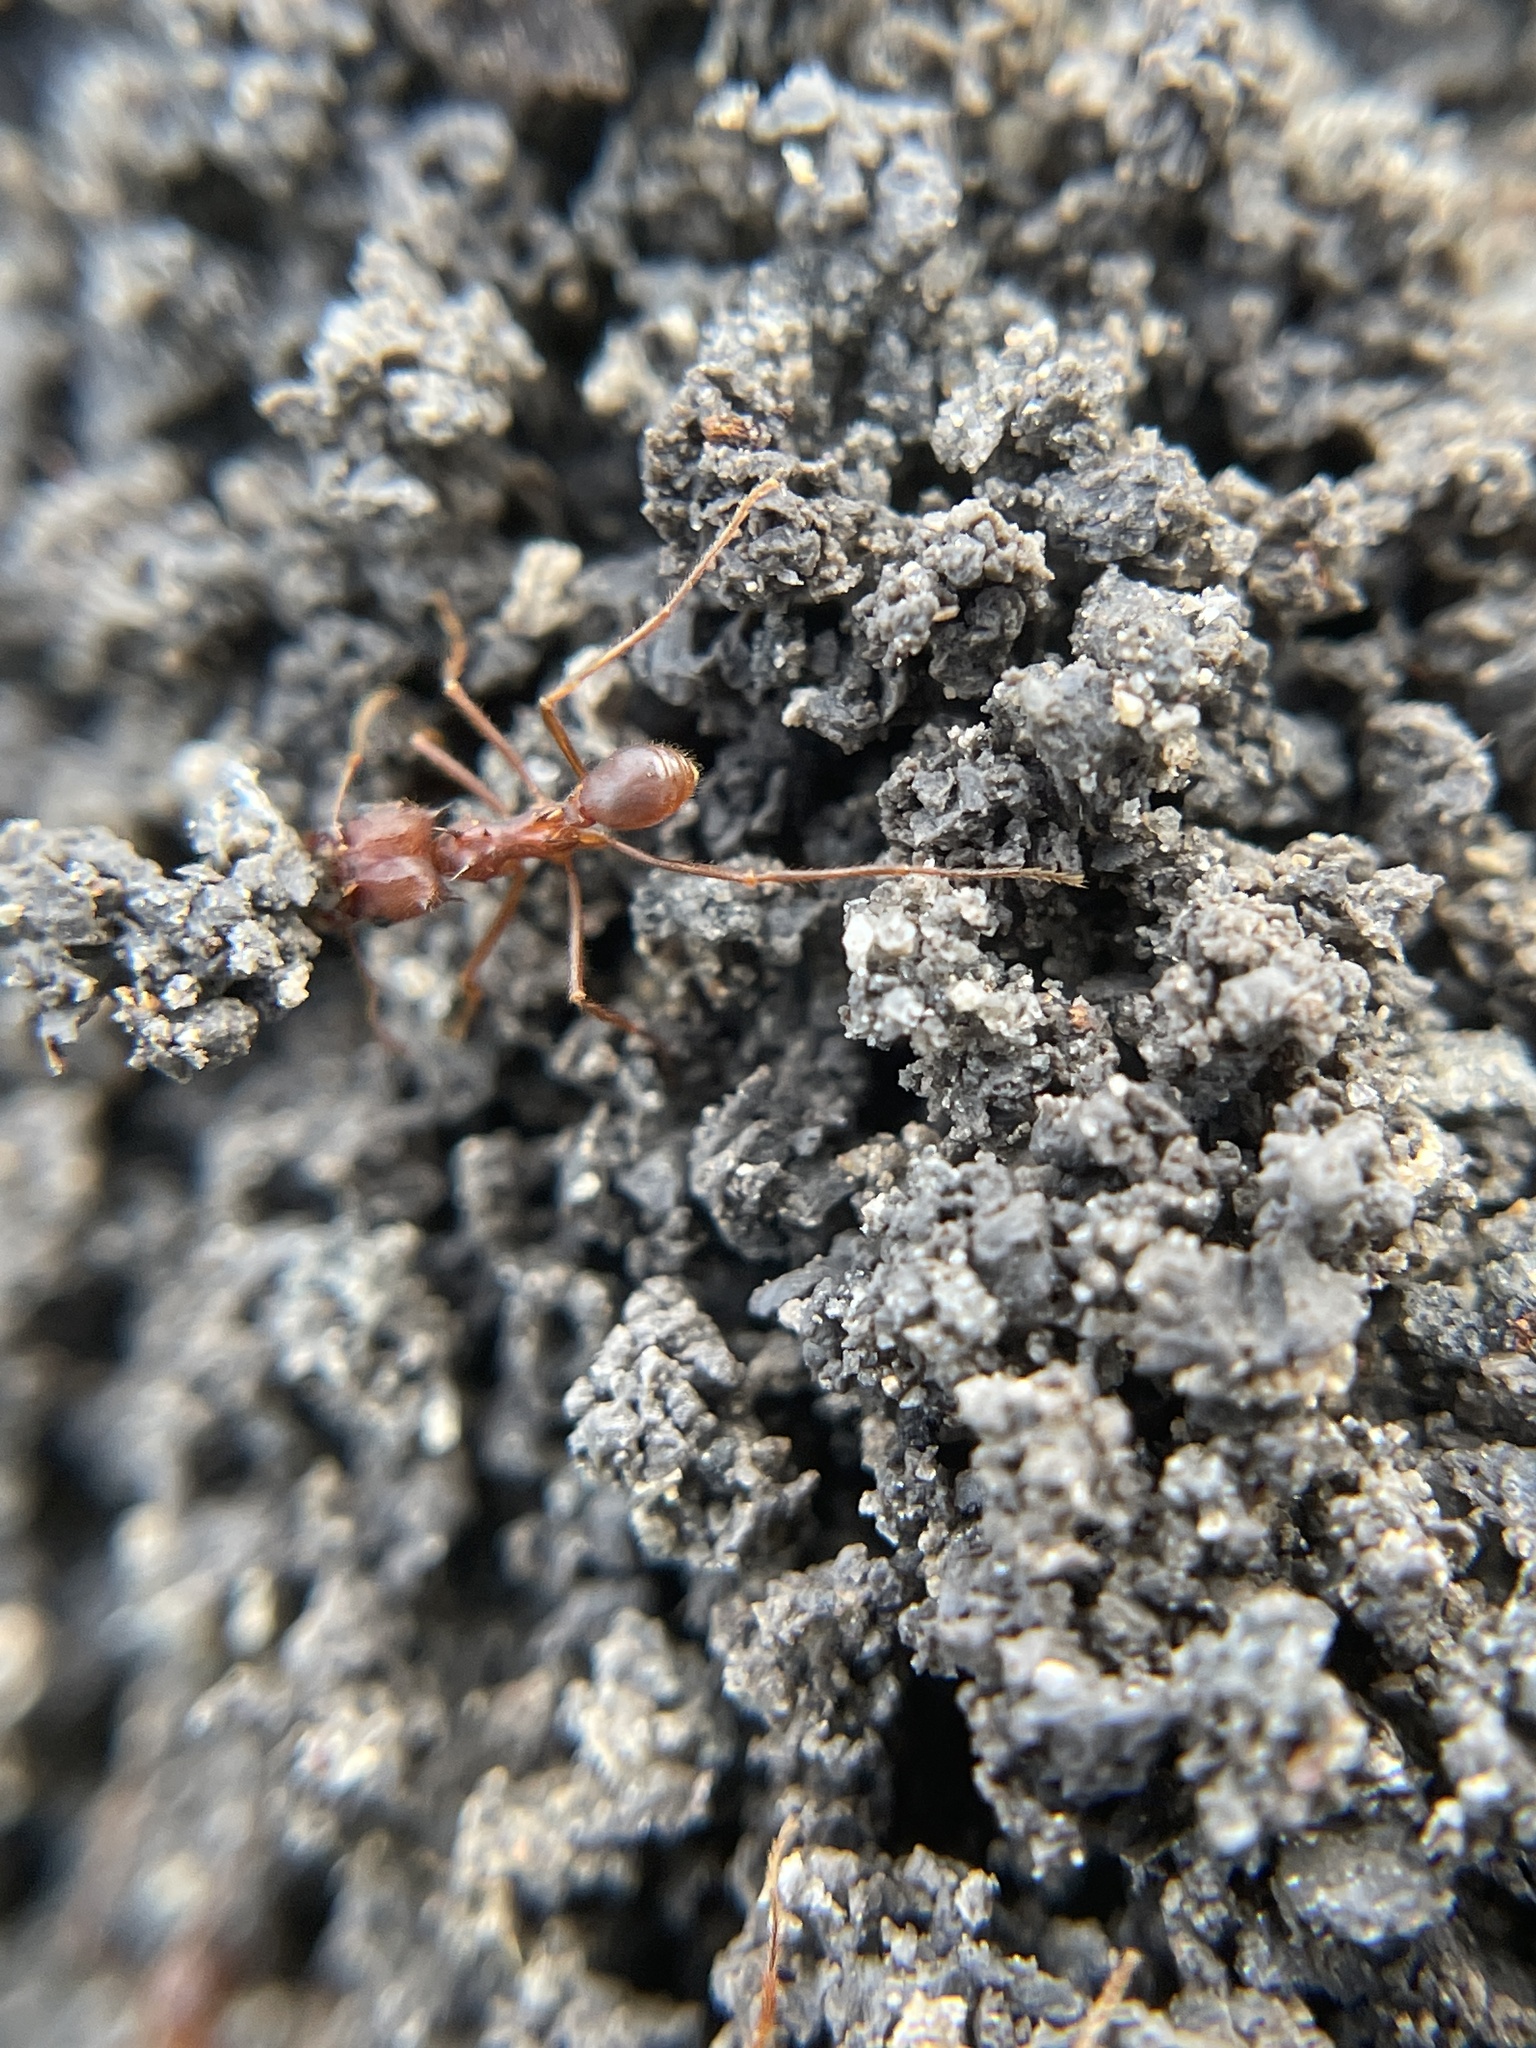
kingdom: Animalia
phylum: Arthropoda
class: Insecta
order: Hymenoptera
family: Formicidae
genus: Atta
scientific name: Atta texana
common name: Texas leafcutting ant
